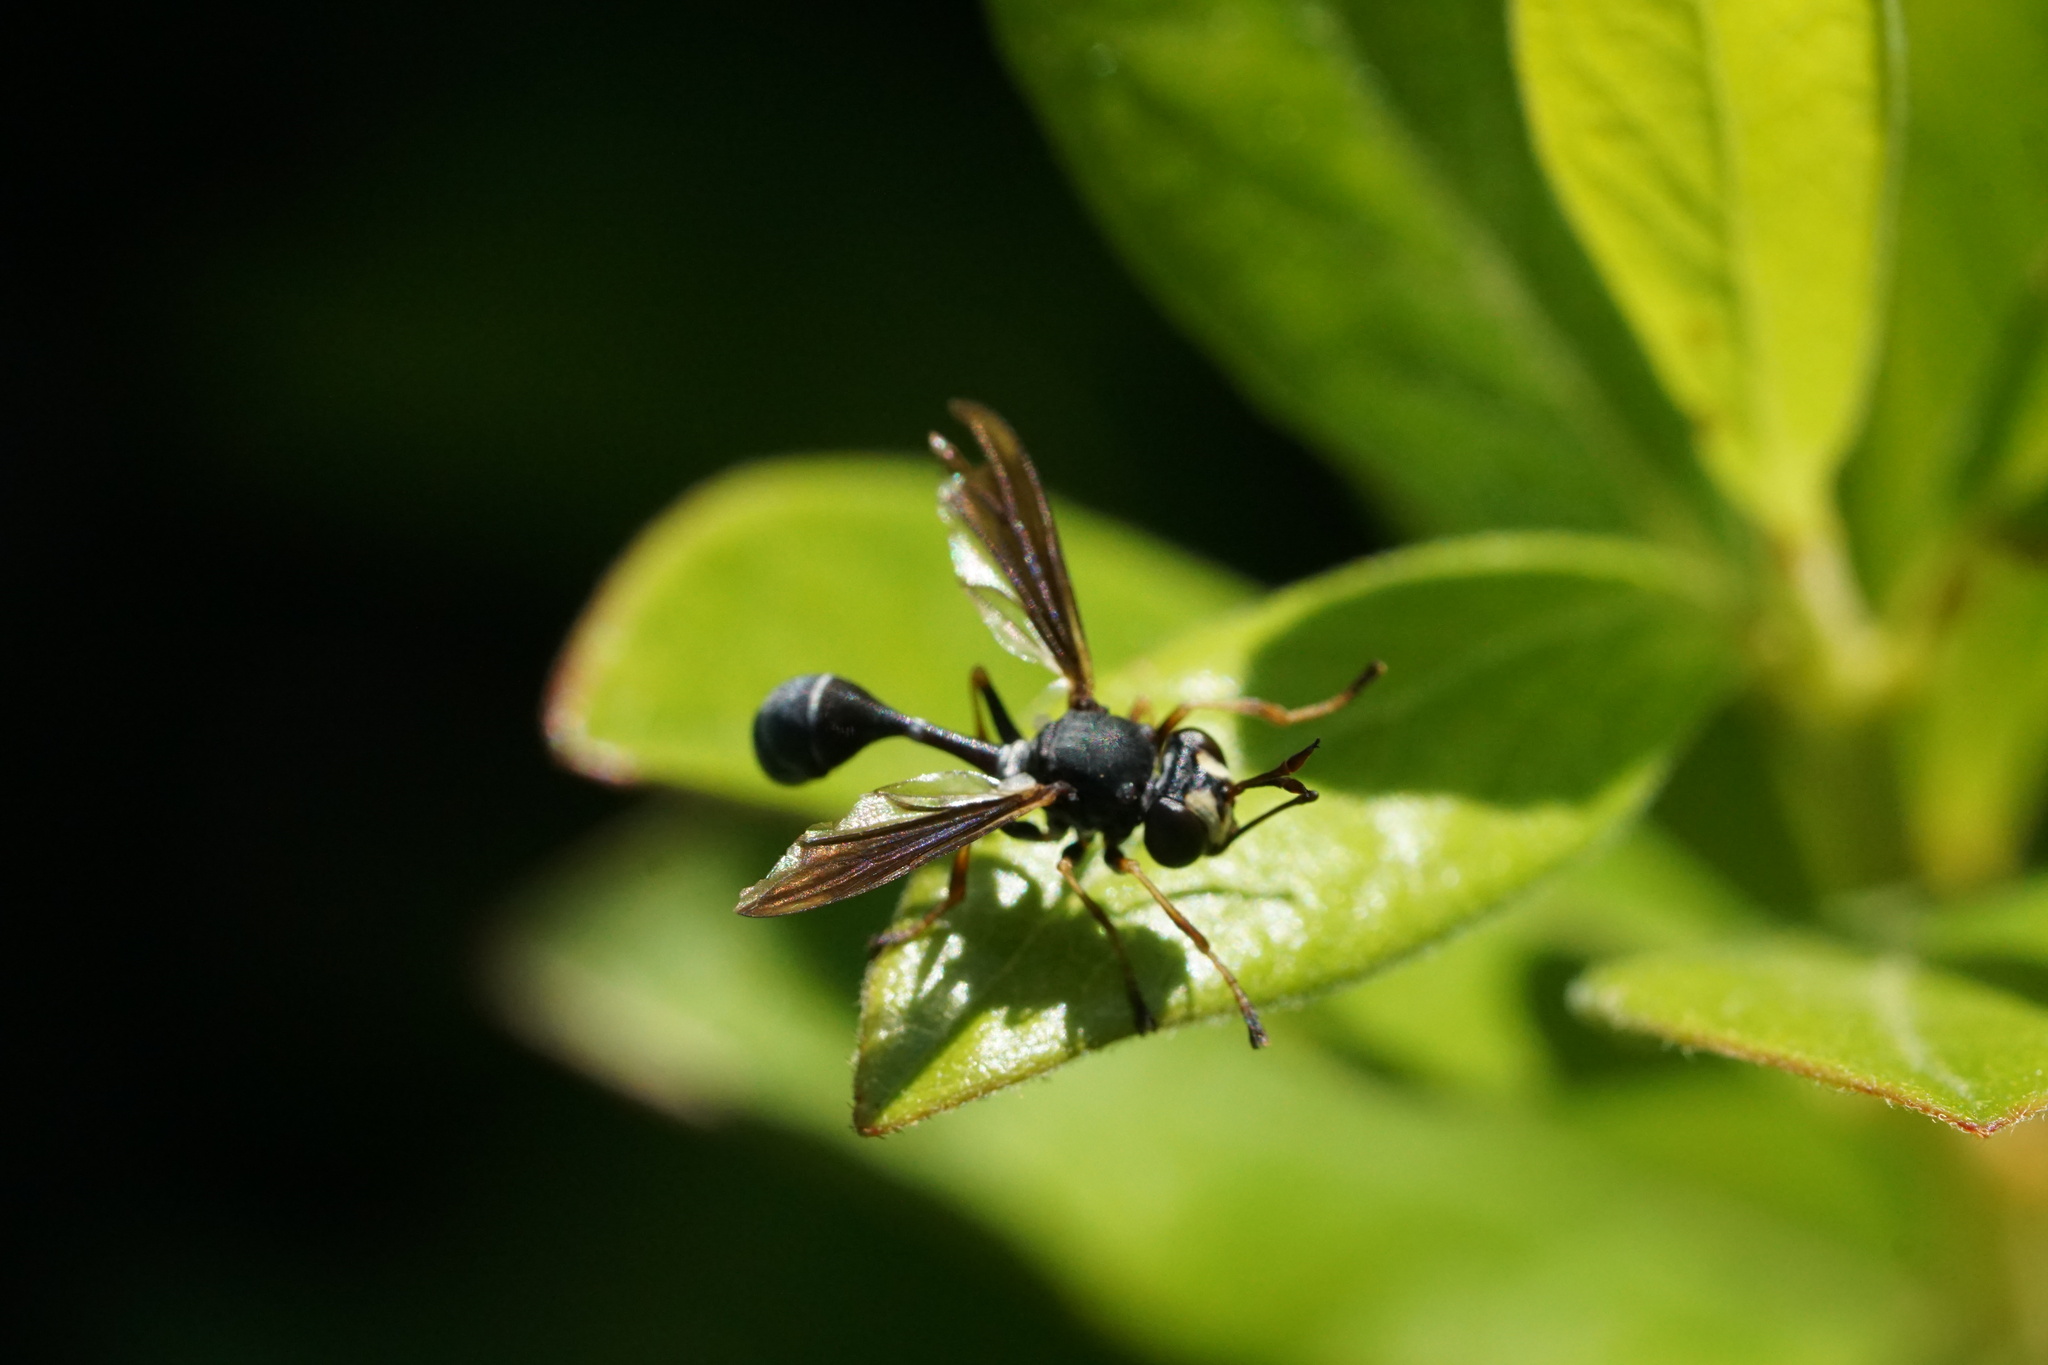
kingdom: Animalia
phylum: Arthropoda
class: Insecta
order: Diptera
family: Conopidae
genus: Physocephala
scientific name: Physocephala tibialis
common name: Common eastern physocephala
